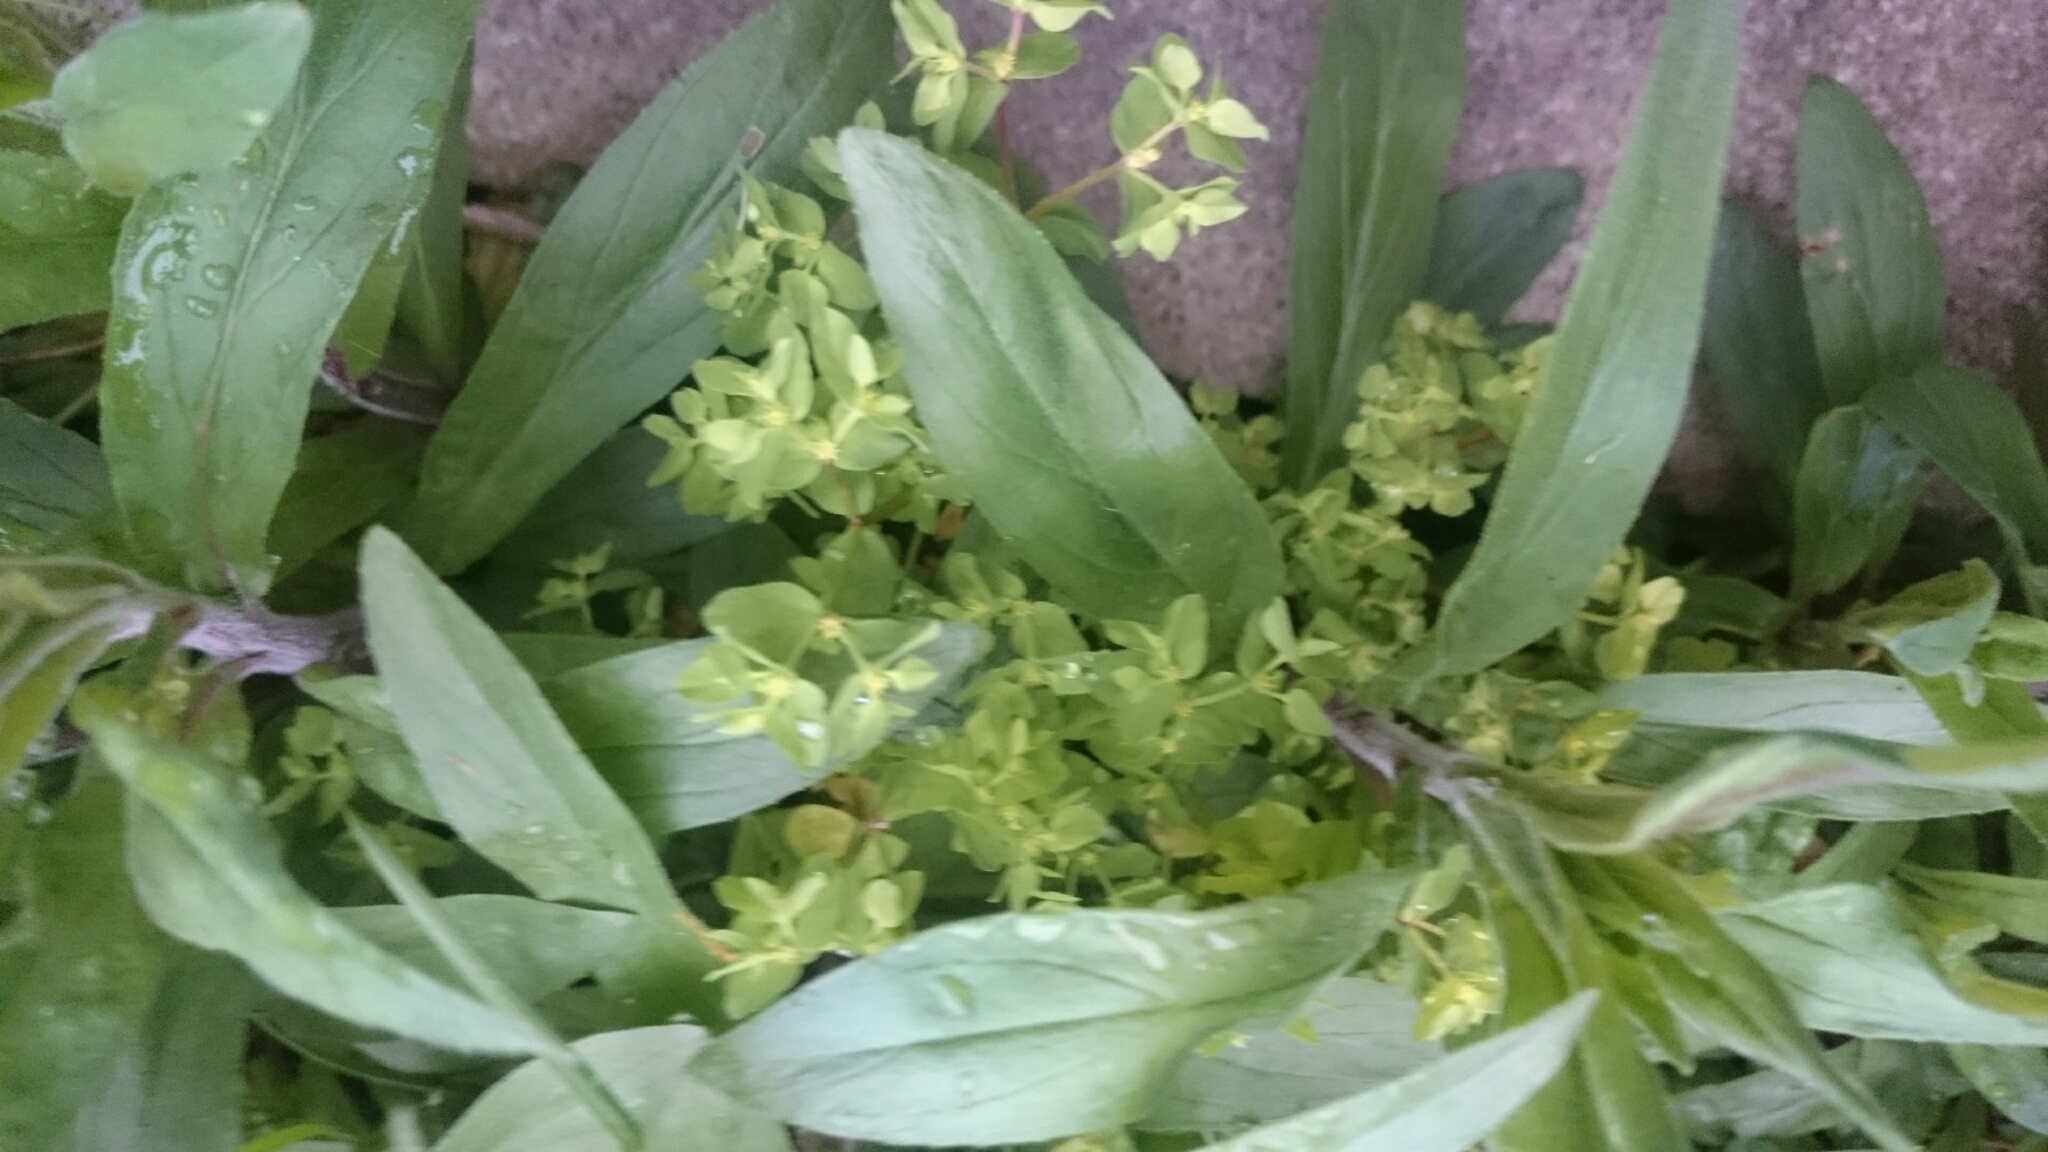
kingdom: Plantae
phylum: Tracheophyta
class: Magnoliopsida
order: Malpighiales
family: Euphorbiaceae
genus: Euphorbia
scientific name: Euphorbia peplus
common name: Petty spurge
